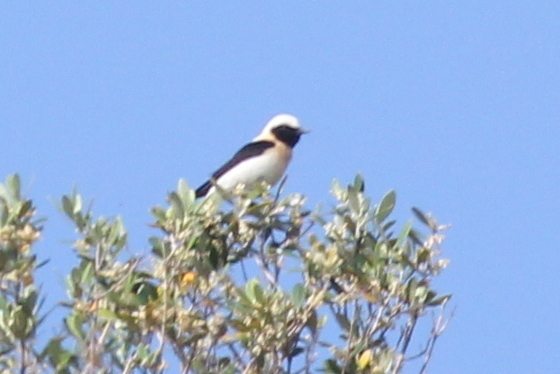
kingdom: Animalia
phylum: Chordata
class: Aves
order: Passeriformes
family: Muscicapidae
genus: Oenanthe
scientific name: Oenanthe hispanica
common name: Black-eared wheatear
